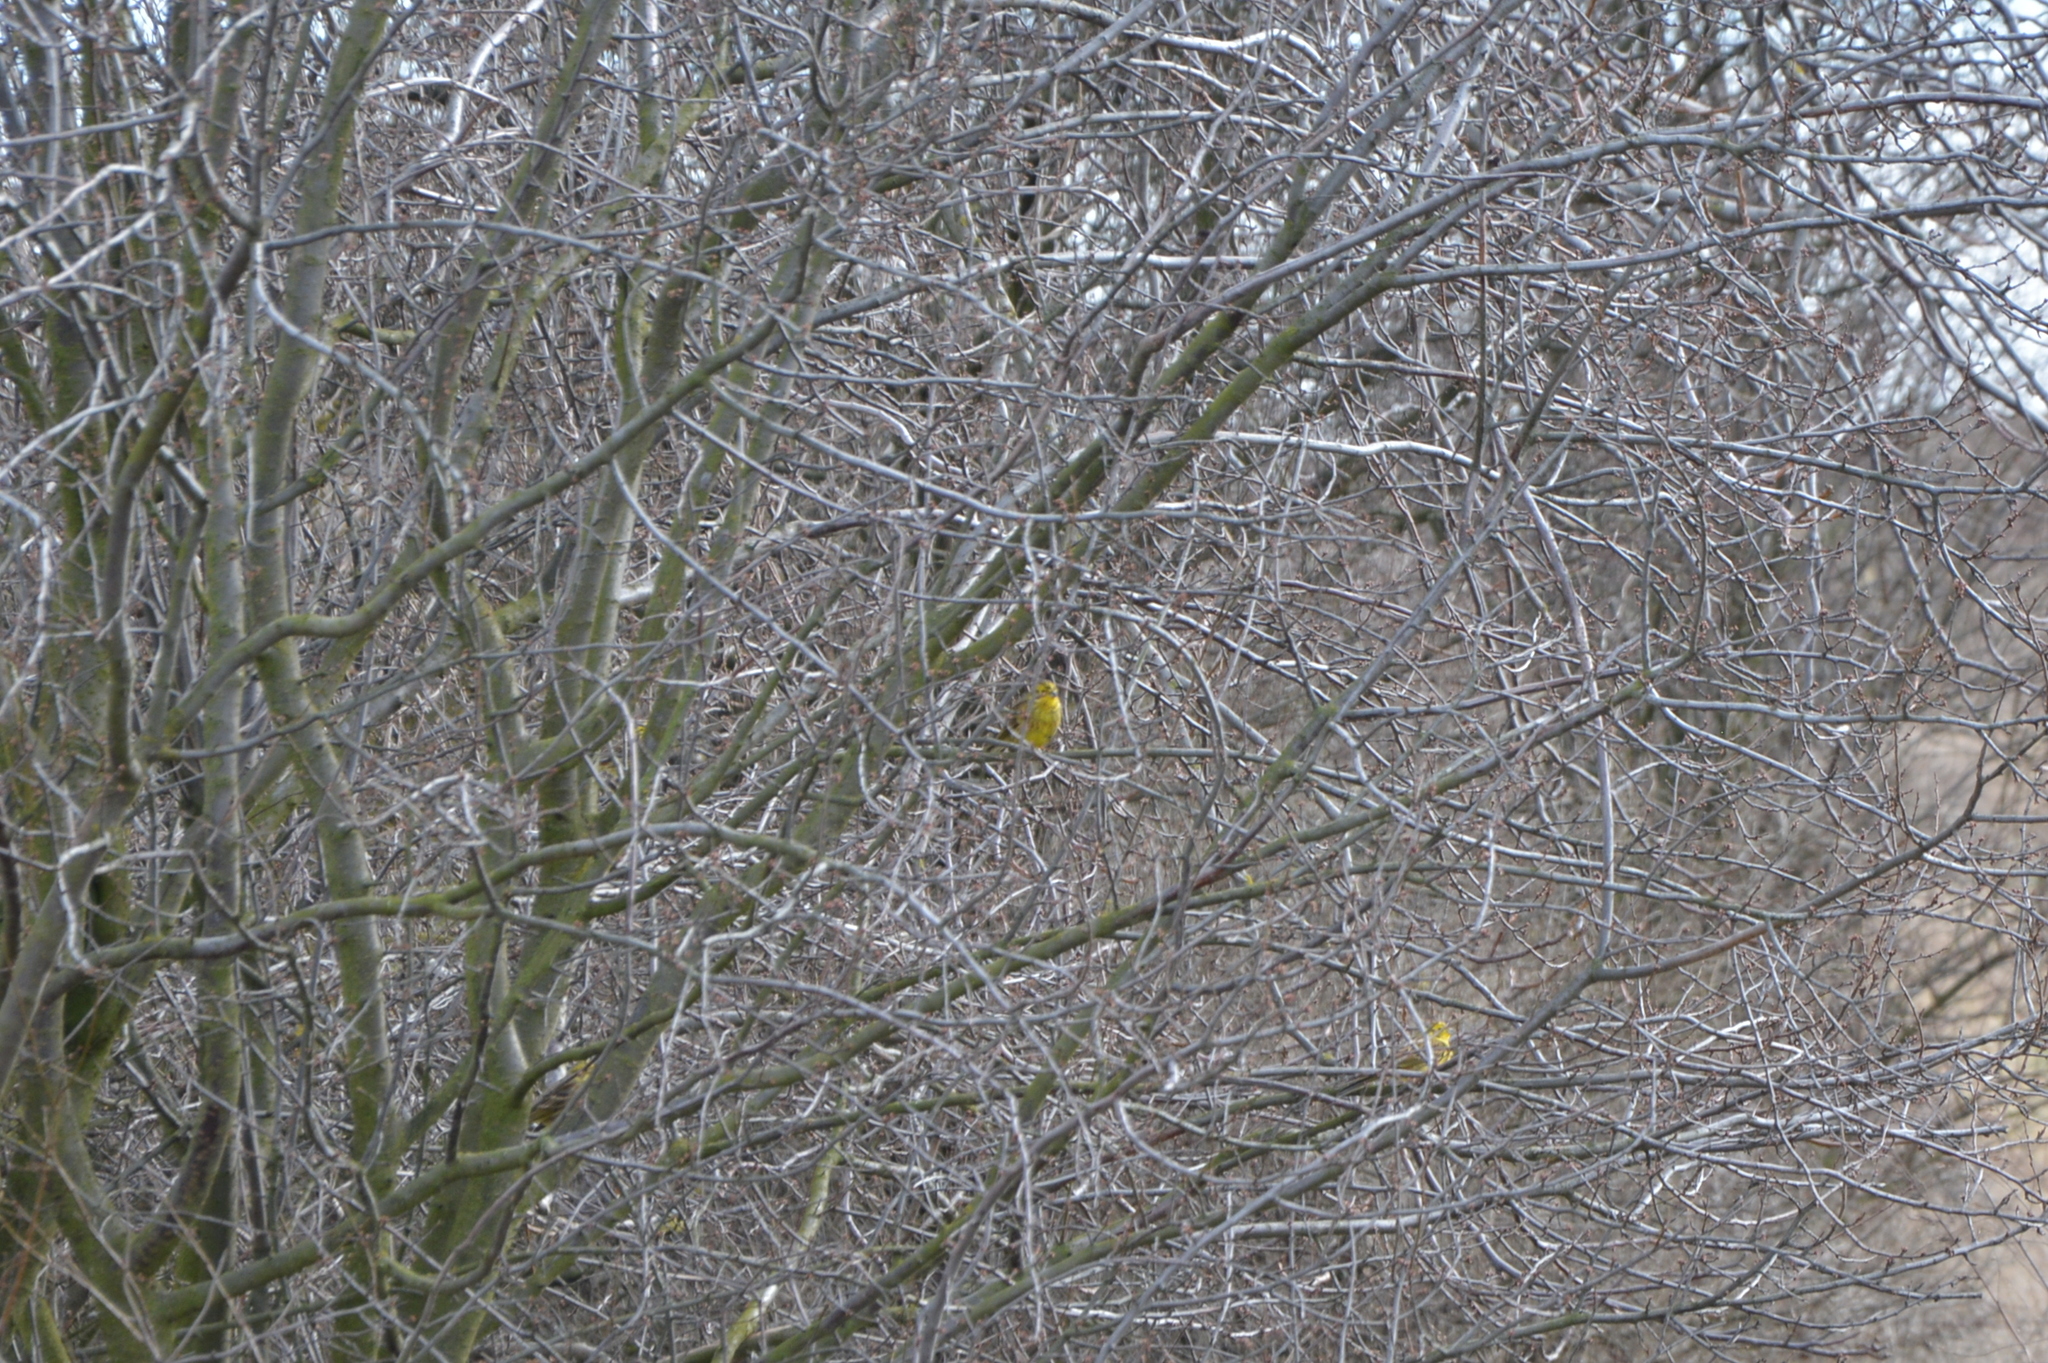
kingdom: Animalia
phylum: Chordata
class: Aves
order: Passeriformes
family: Emberizidae
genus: Emberiza
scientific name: Emberiza citrinella
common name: Yellowhammer
